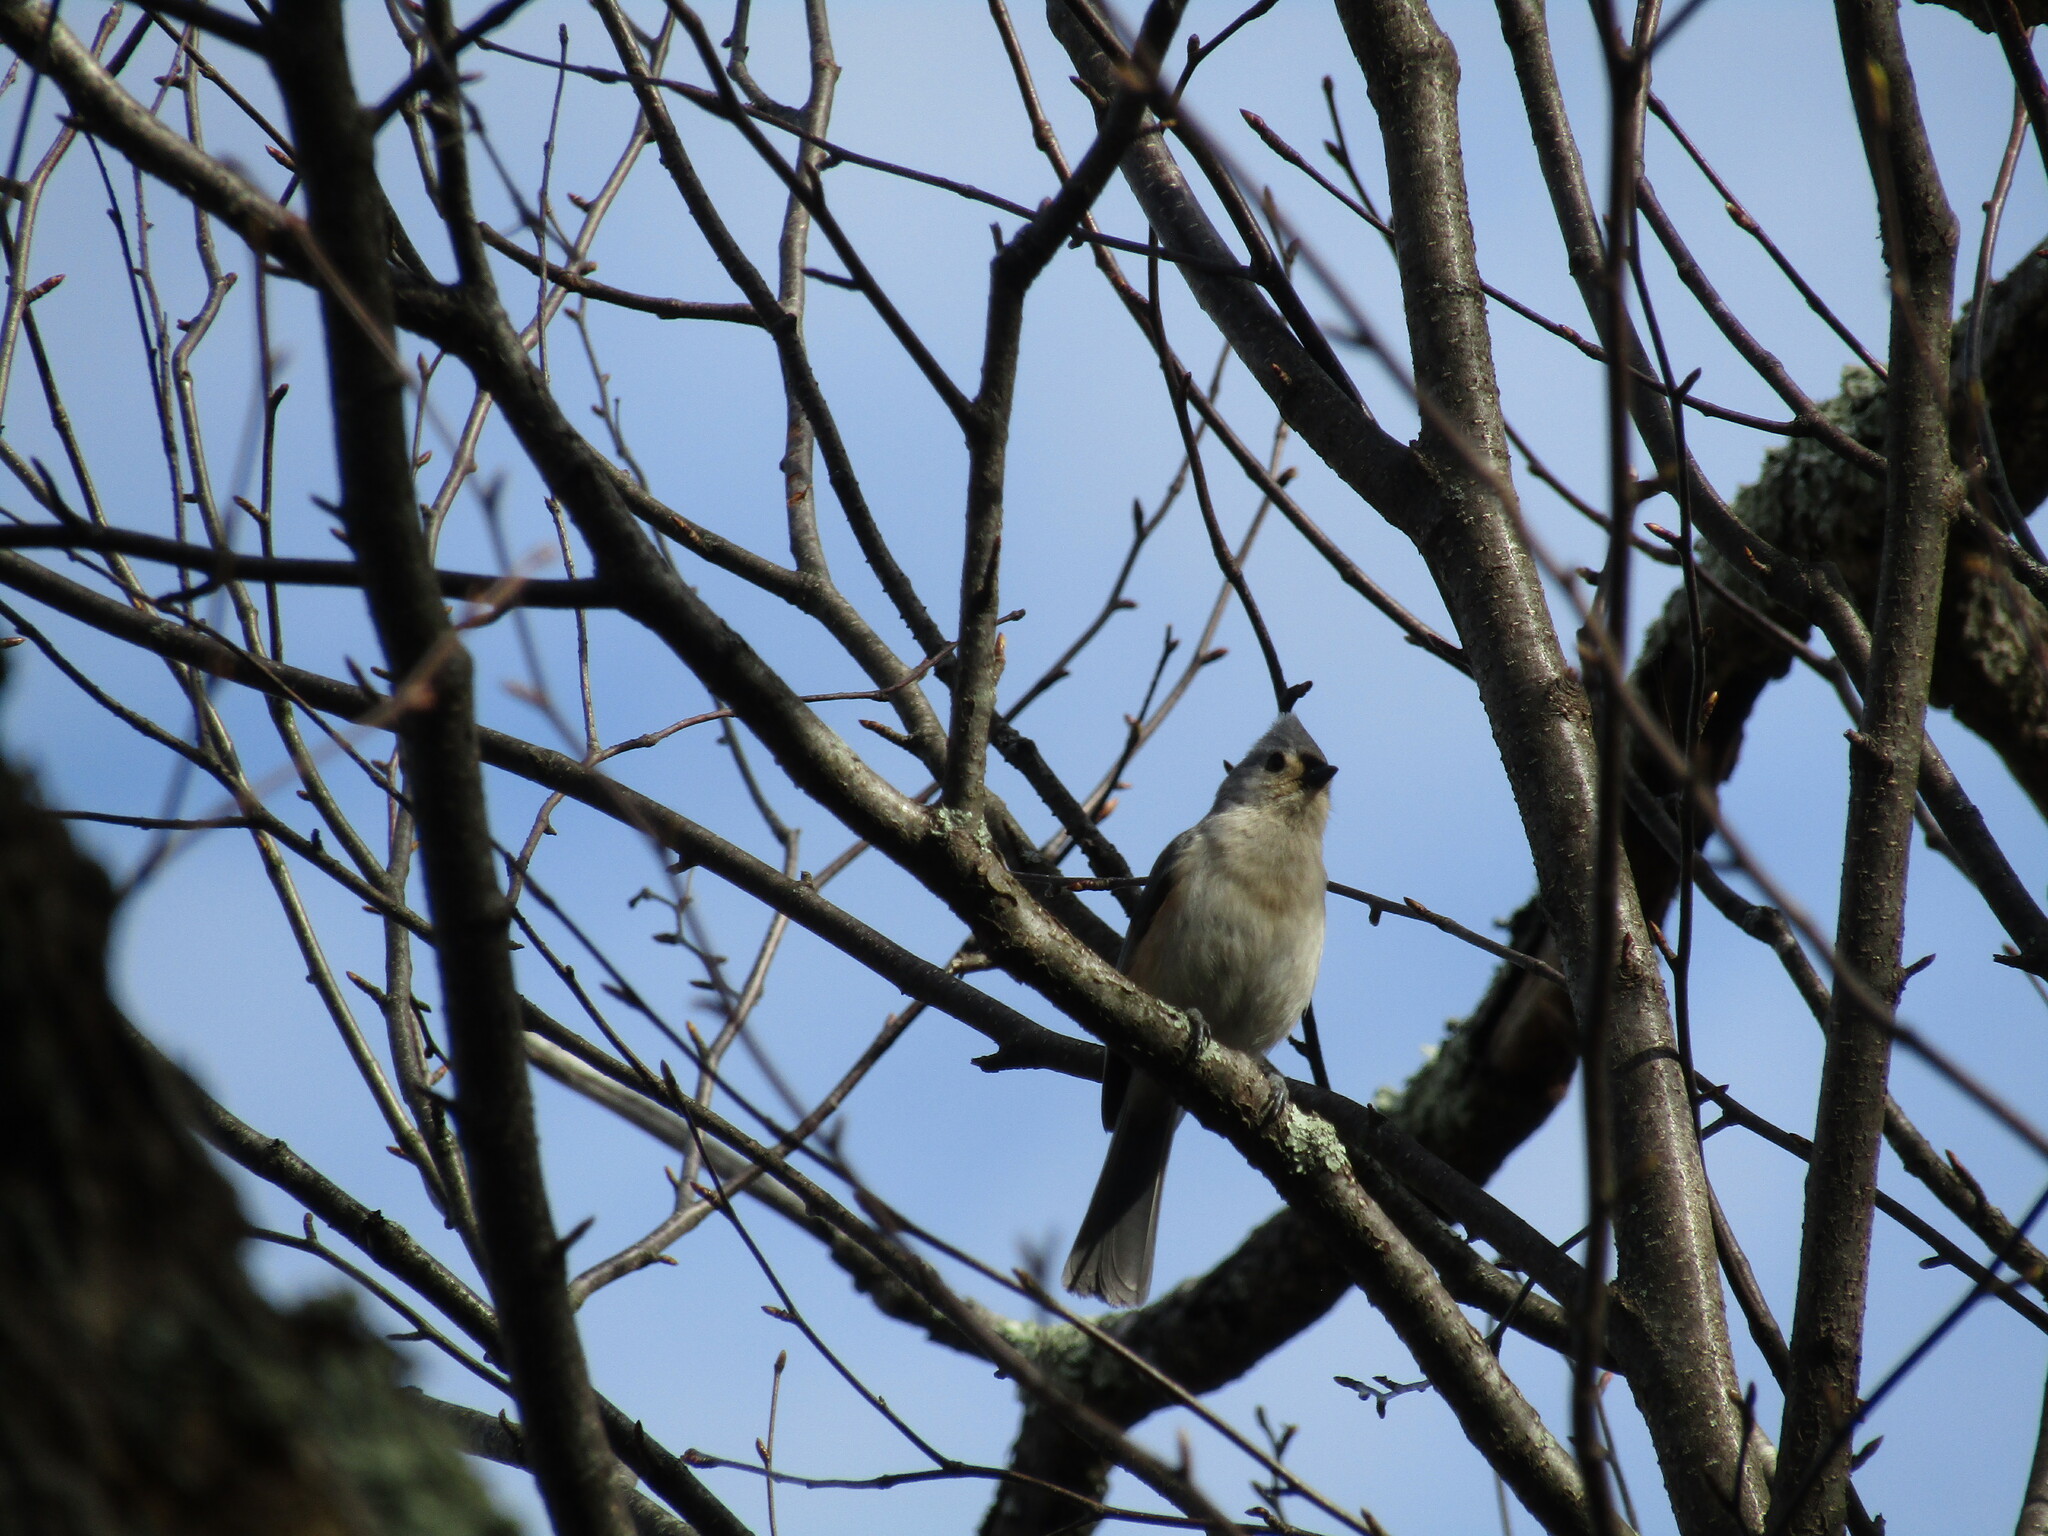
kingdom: Animalia
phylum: Chordata
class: Aves
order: Passeriformes
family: Paridae
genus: Baeolophus
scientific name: Baeolophus bicolor
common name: Tufted titmouse
